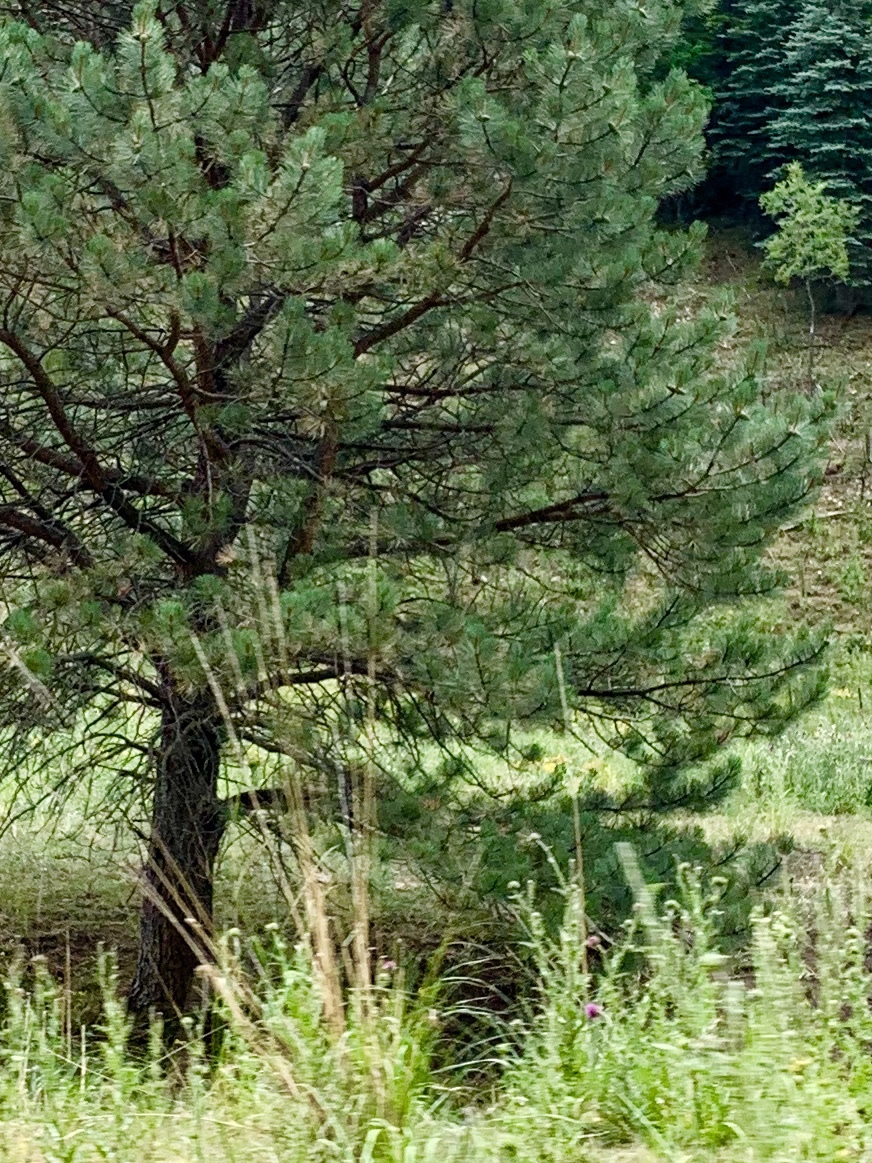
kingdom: Plantae
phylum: Tracheophyta
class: Pinopsida
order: Pinales
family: Pinaceae
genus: Pinus
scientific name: Pinus ponderosa
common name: Western yellow-pine
